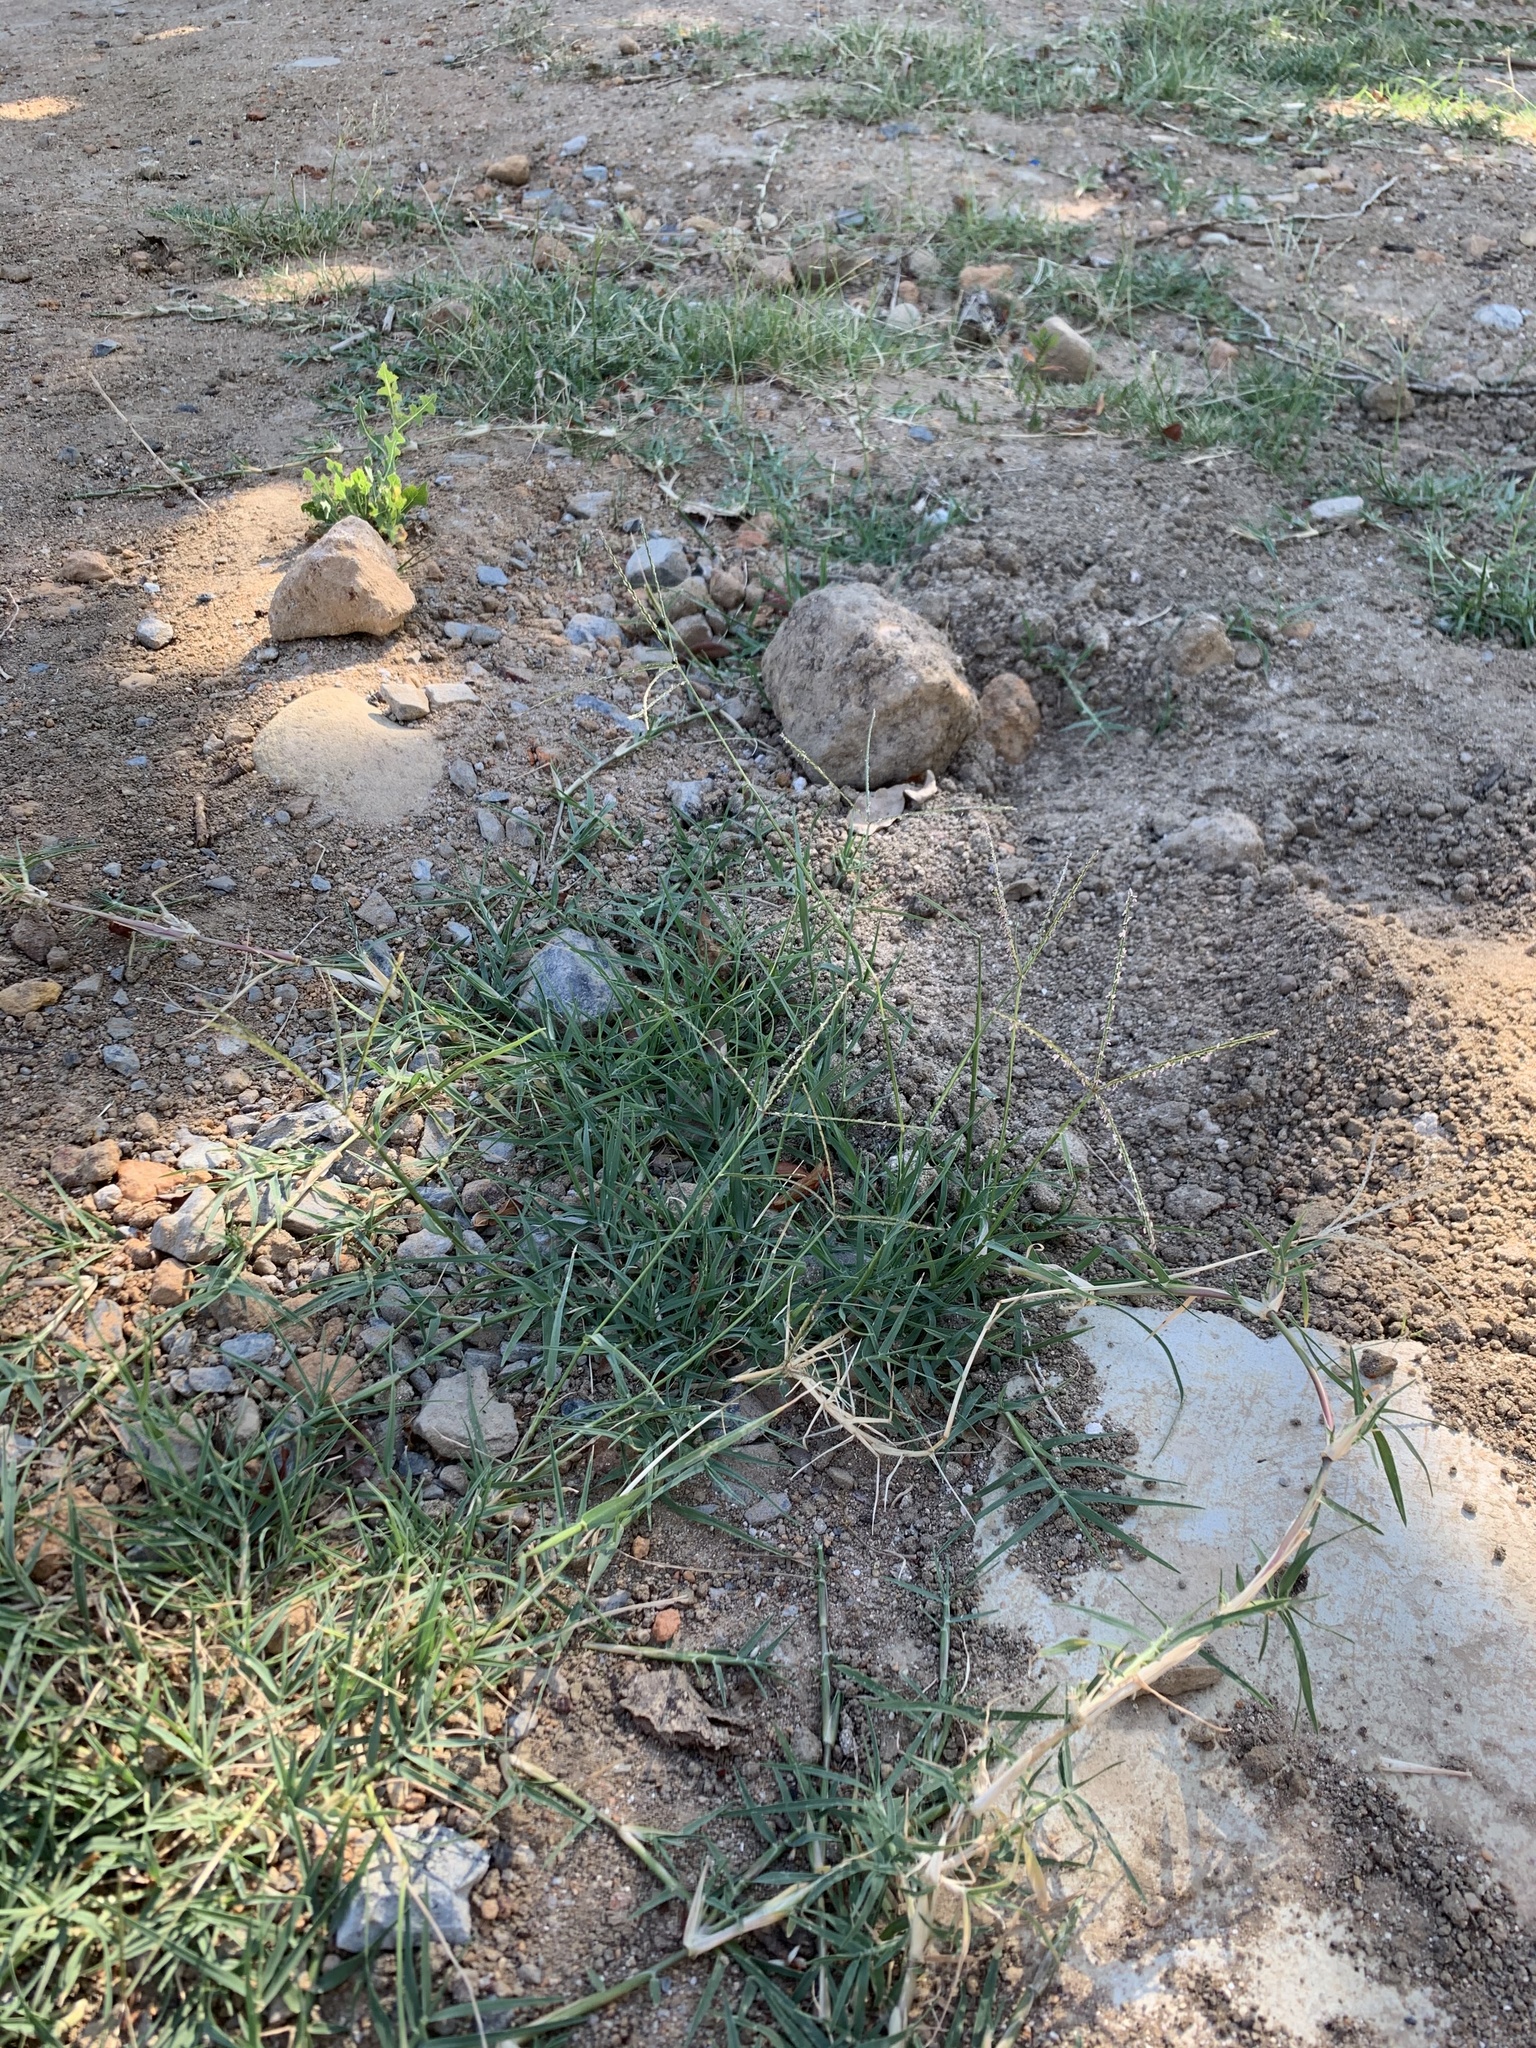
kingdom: Plantae
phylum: Tracheophyta
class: Liliopsida
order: Poales
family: Poaceae
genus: Cynodon
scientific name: Cynodon dactylon
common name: Bermuda grass
